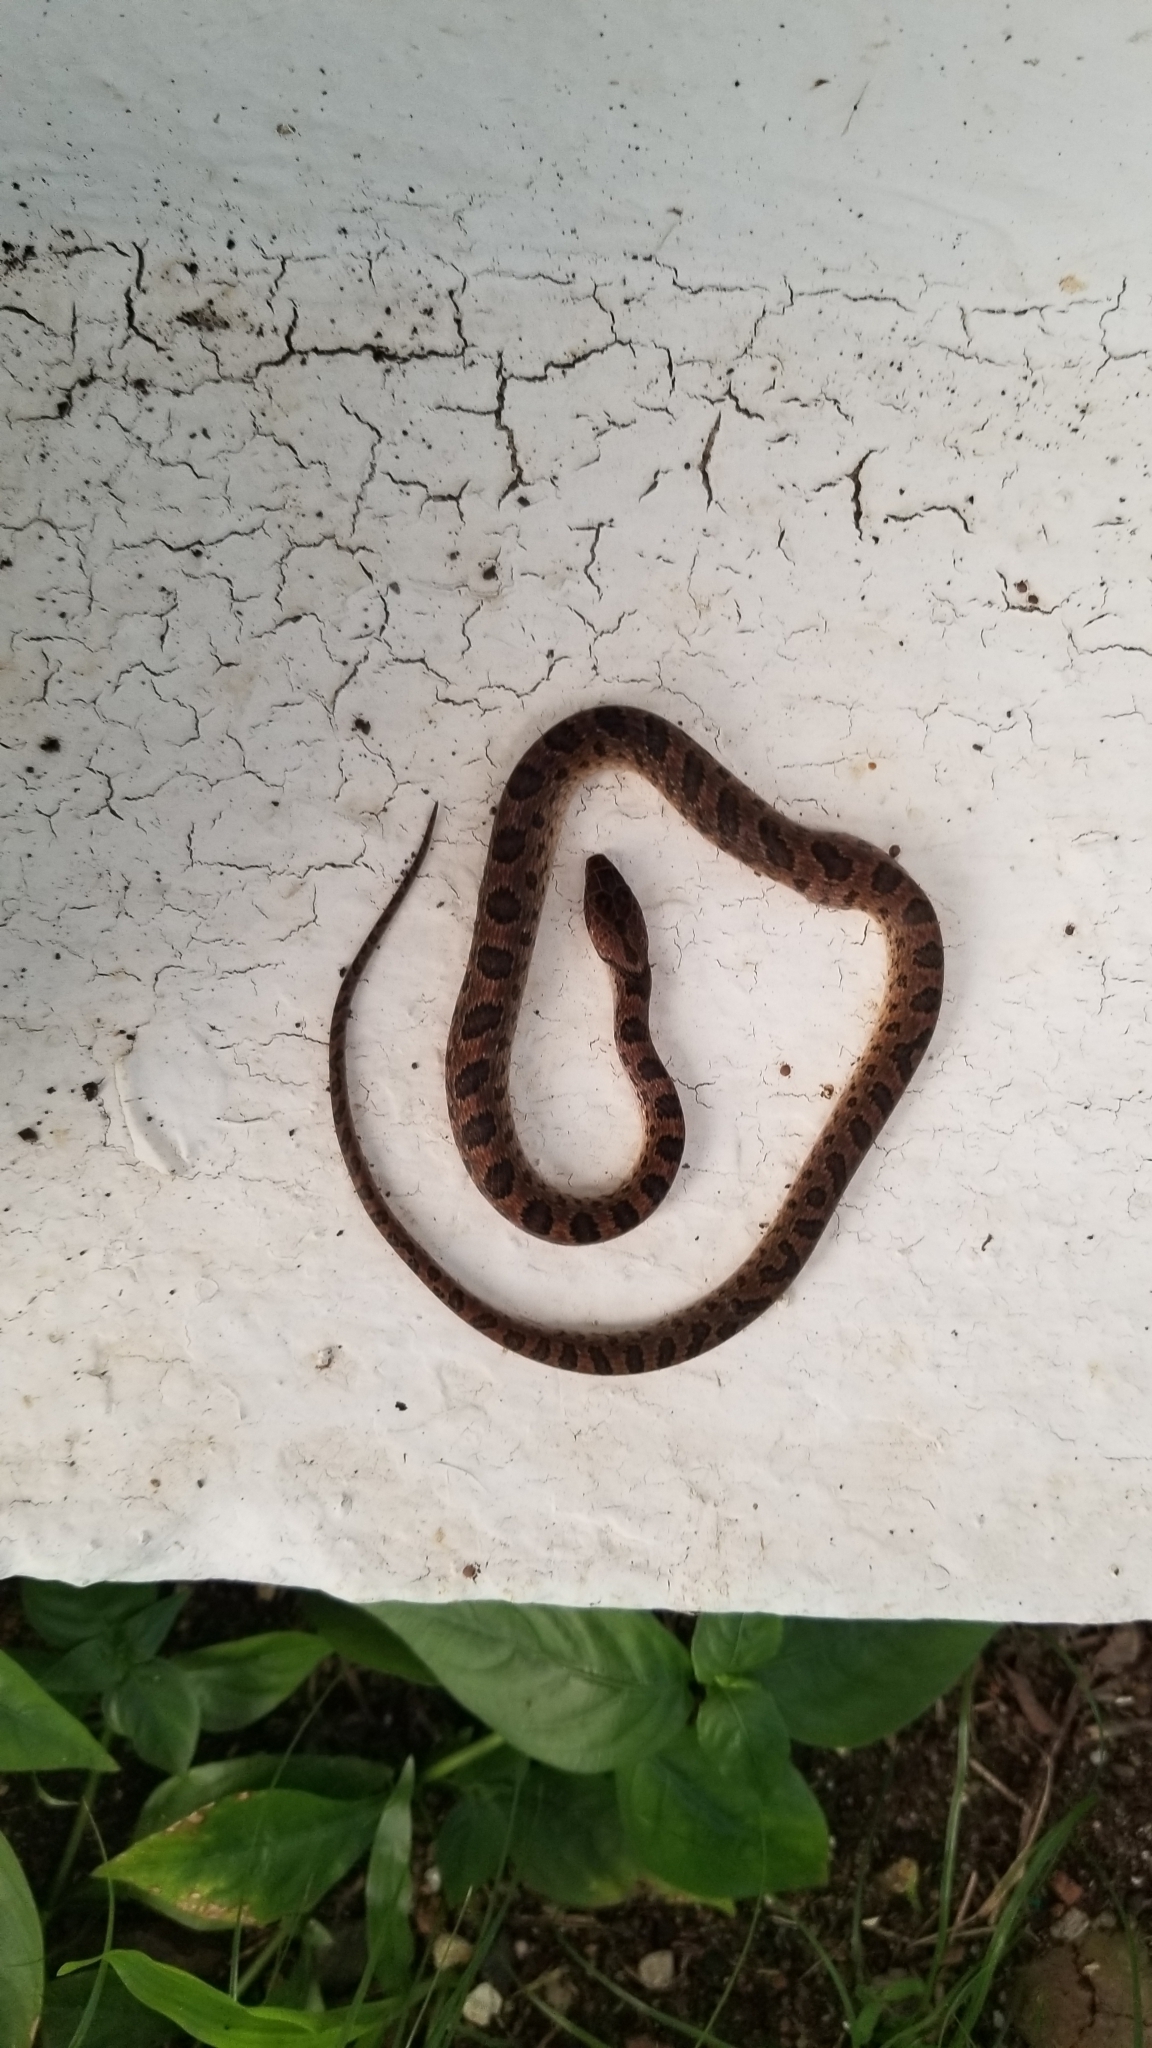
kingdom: Animalia
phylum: Chordata
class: Squamata
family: Colubridae
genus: Leptodeira
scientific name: Leptodeira rhombifera
